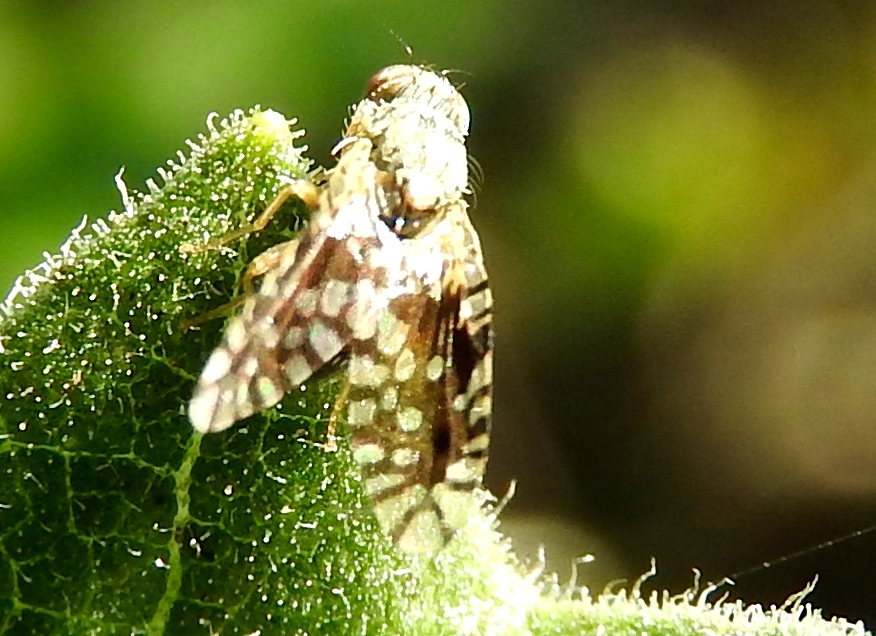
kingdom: Animalia
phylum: Arthropoda
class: Insecta
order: Diptera
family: Tephritidae
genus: Euaresta
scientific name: Euaresta bellula
